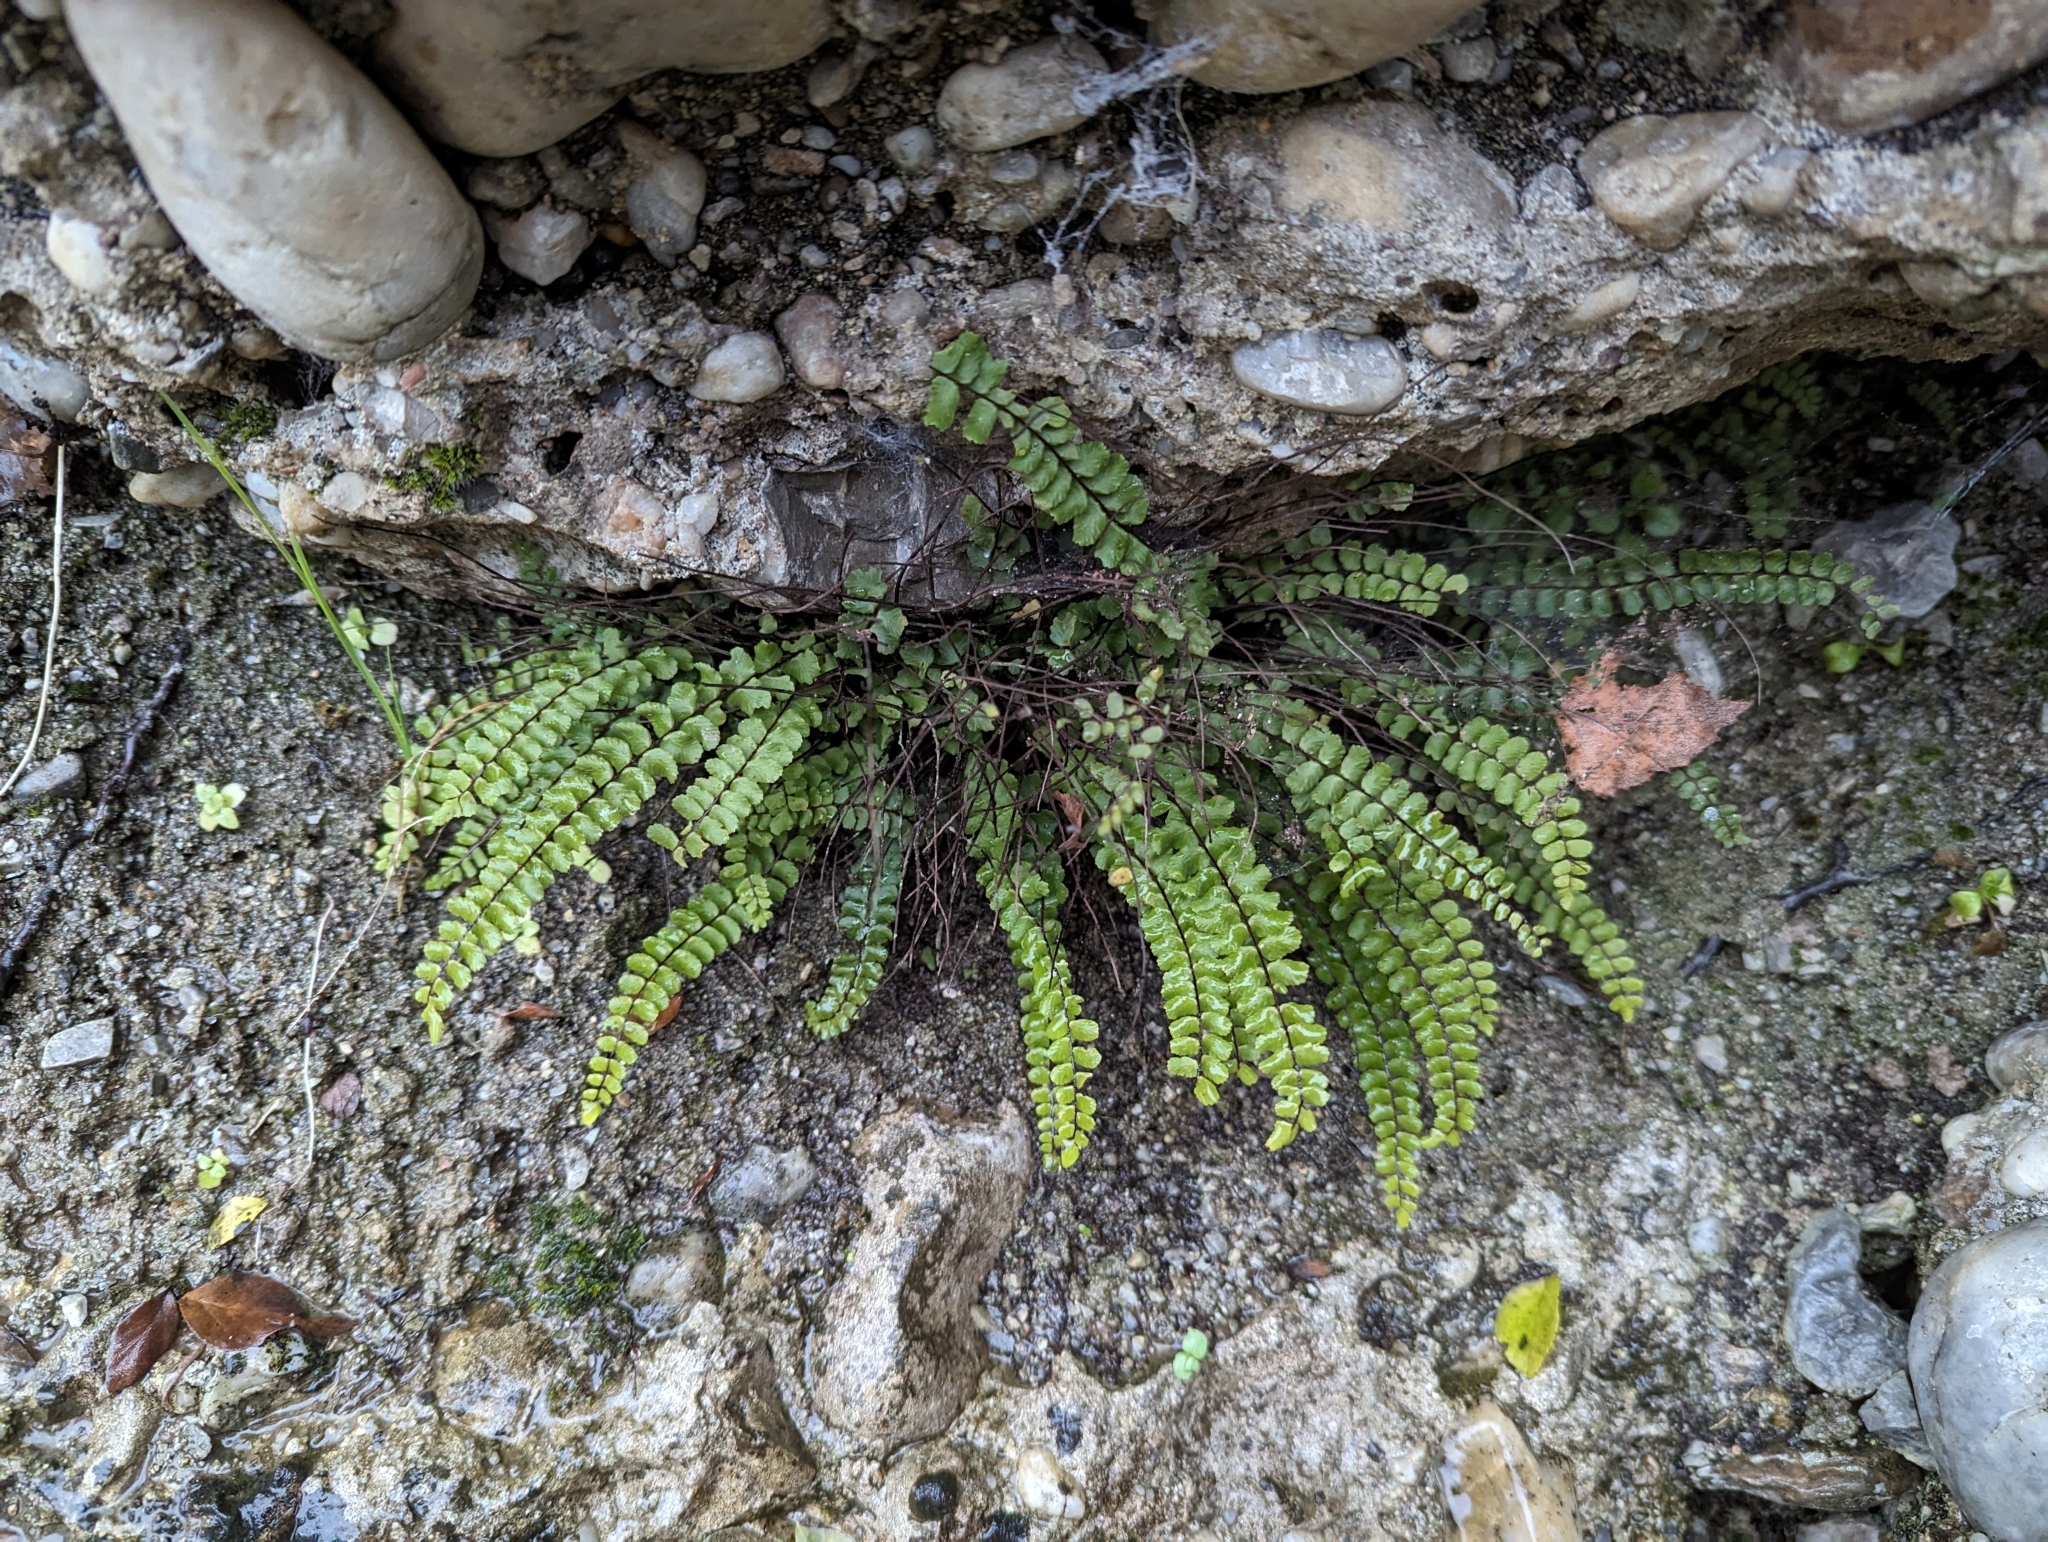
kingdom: Plantae
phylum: Tracheophyta
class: Polypodiopsida
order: Polypodiales
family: Aspleniaceae
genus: Asplenium
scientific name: Asplenium trichomanes
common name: Maidenhair spleenwort
